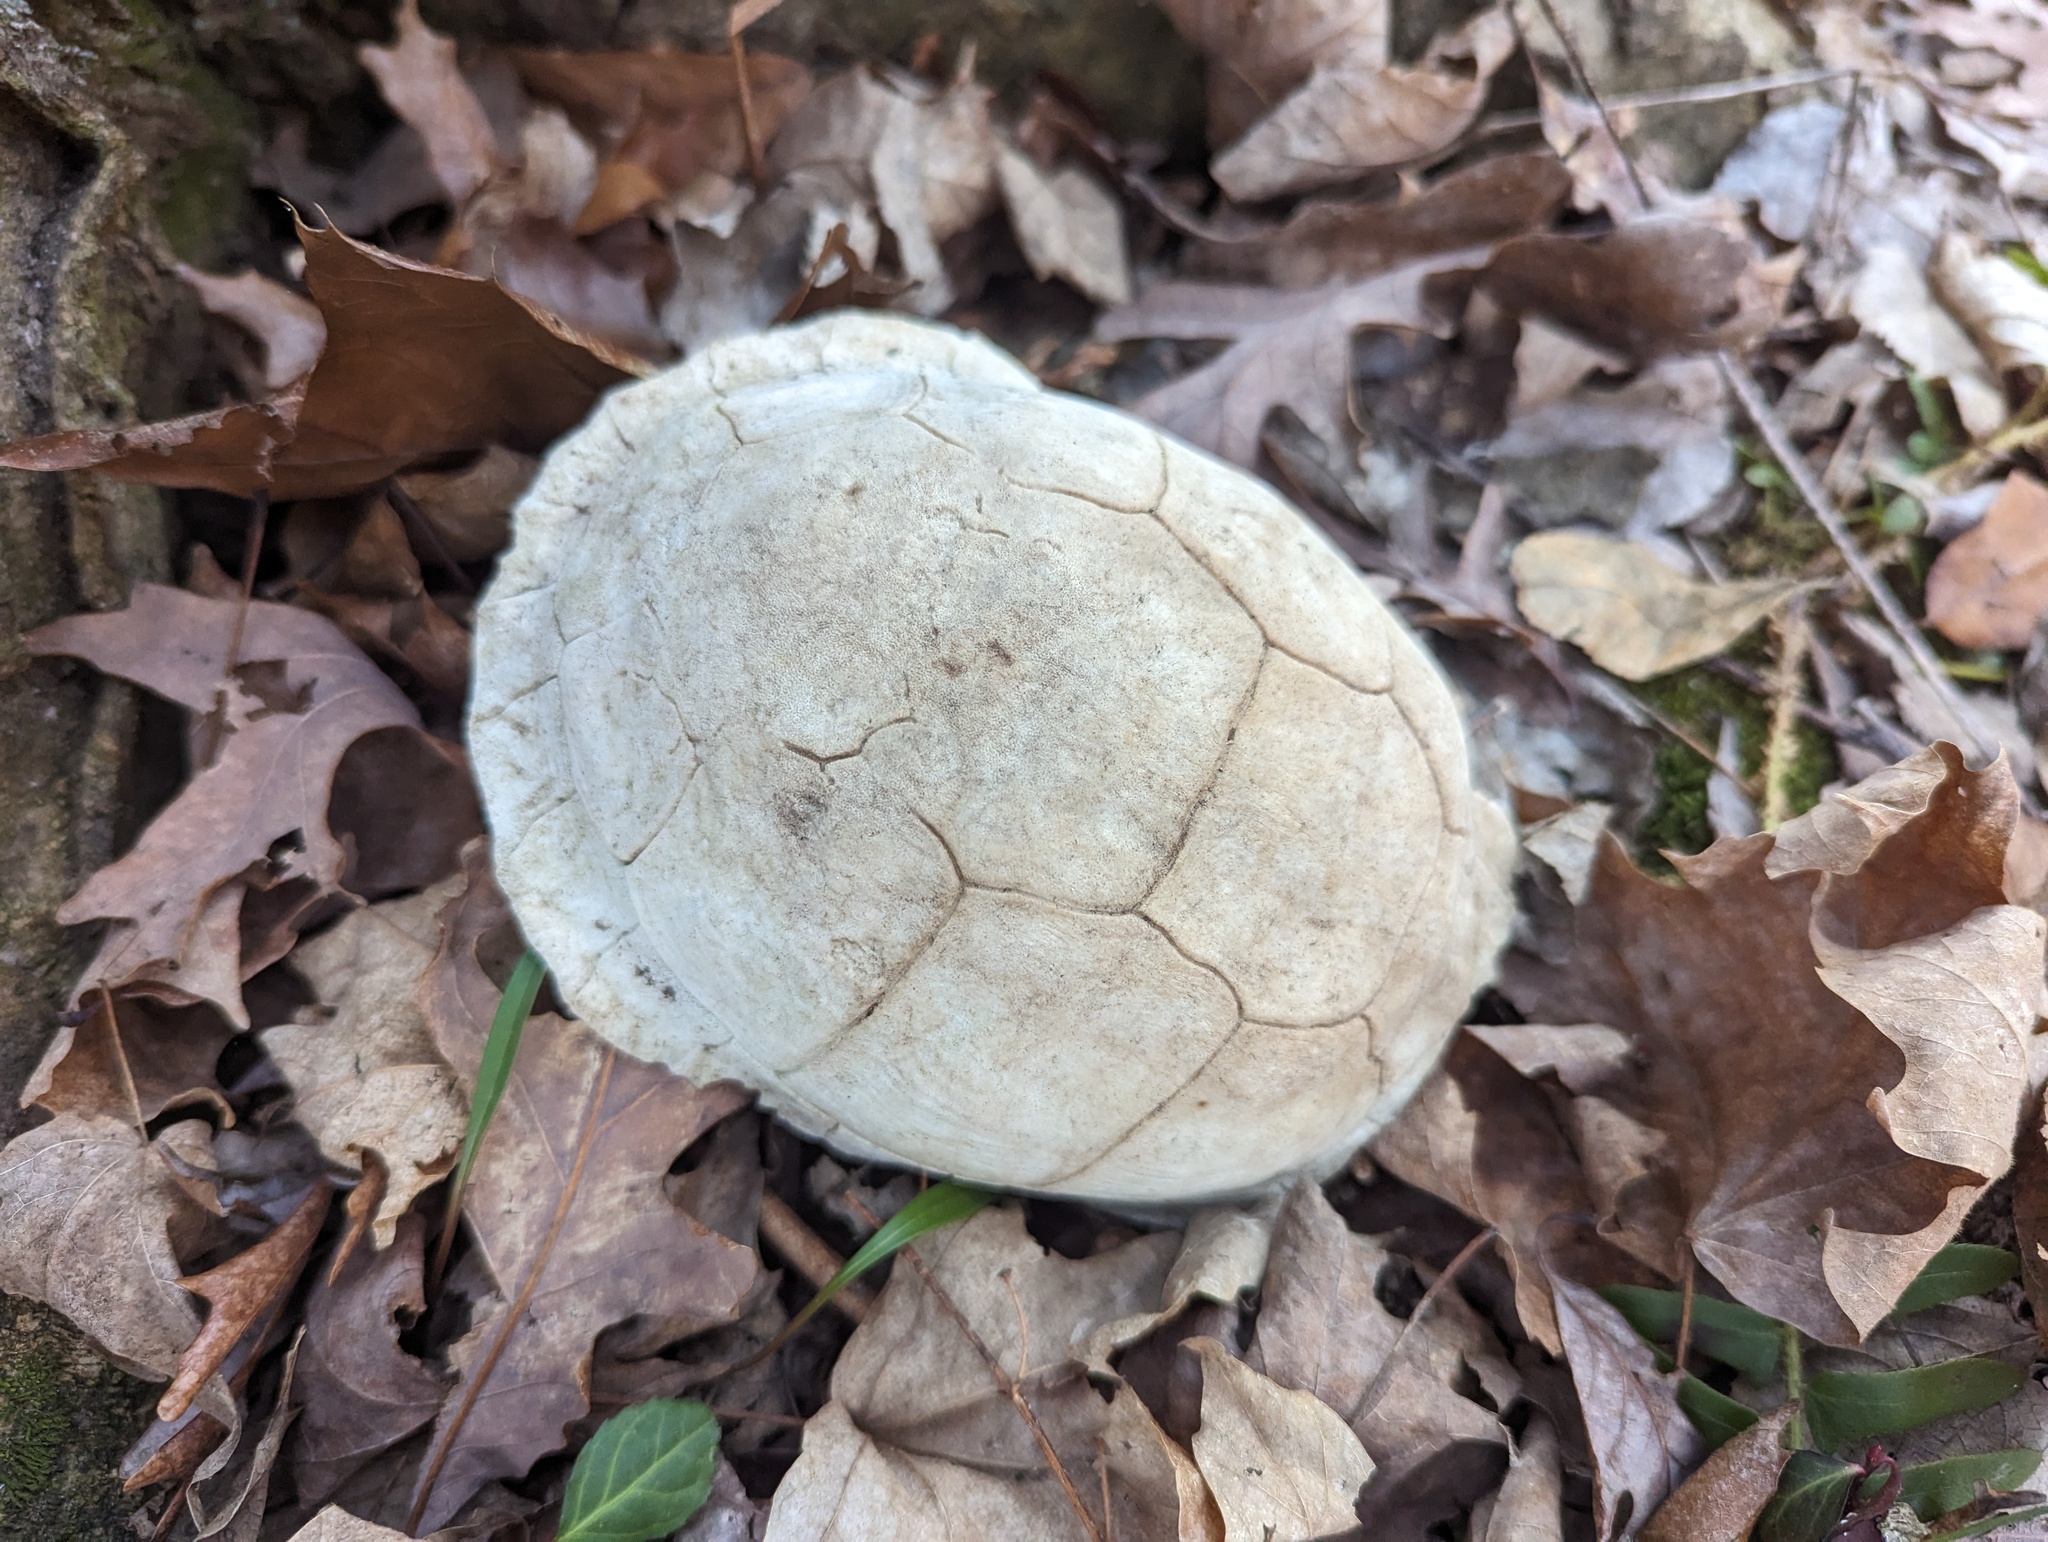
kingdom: Animalia
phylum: Chordata
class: Testudines
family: Emydidae
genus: Terrapene
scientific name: Terrapene carolina
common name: Common box turtle
